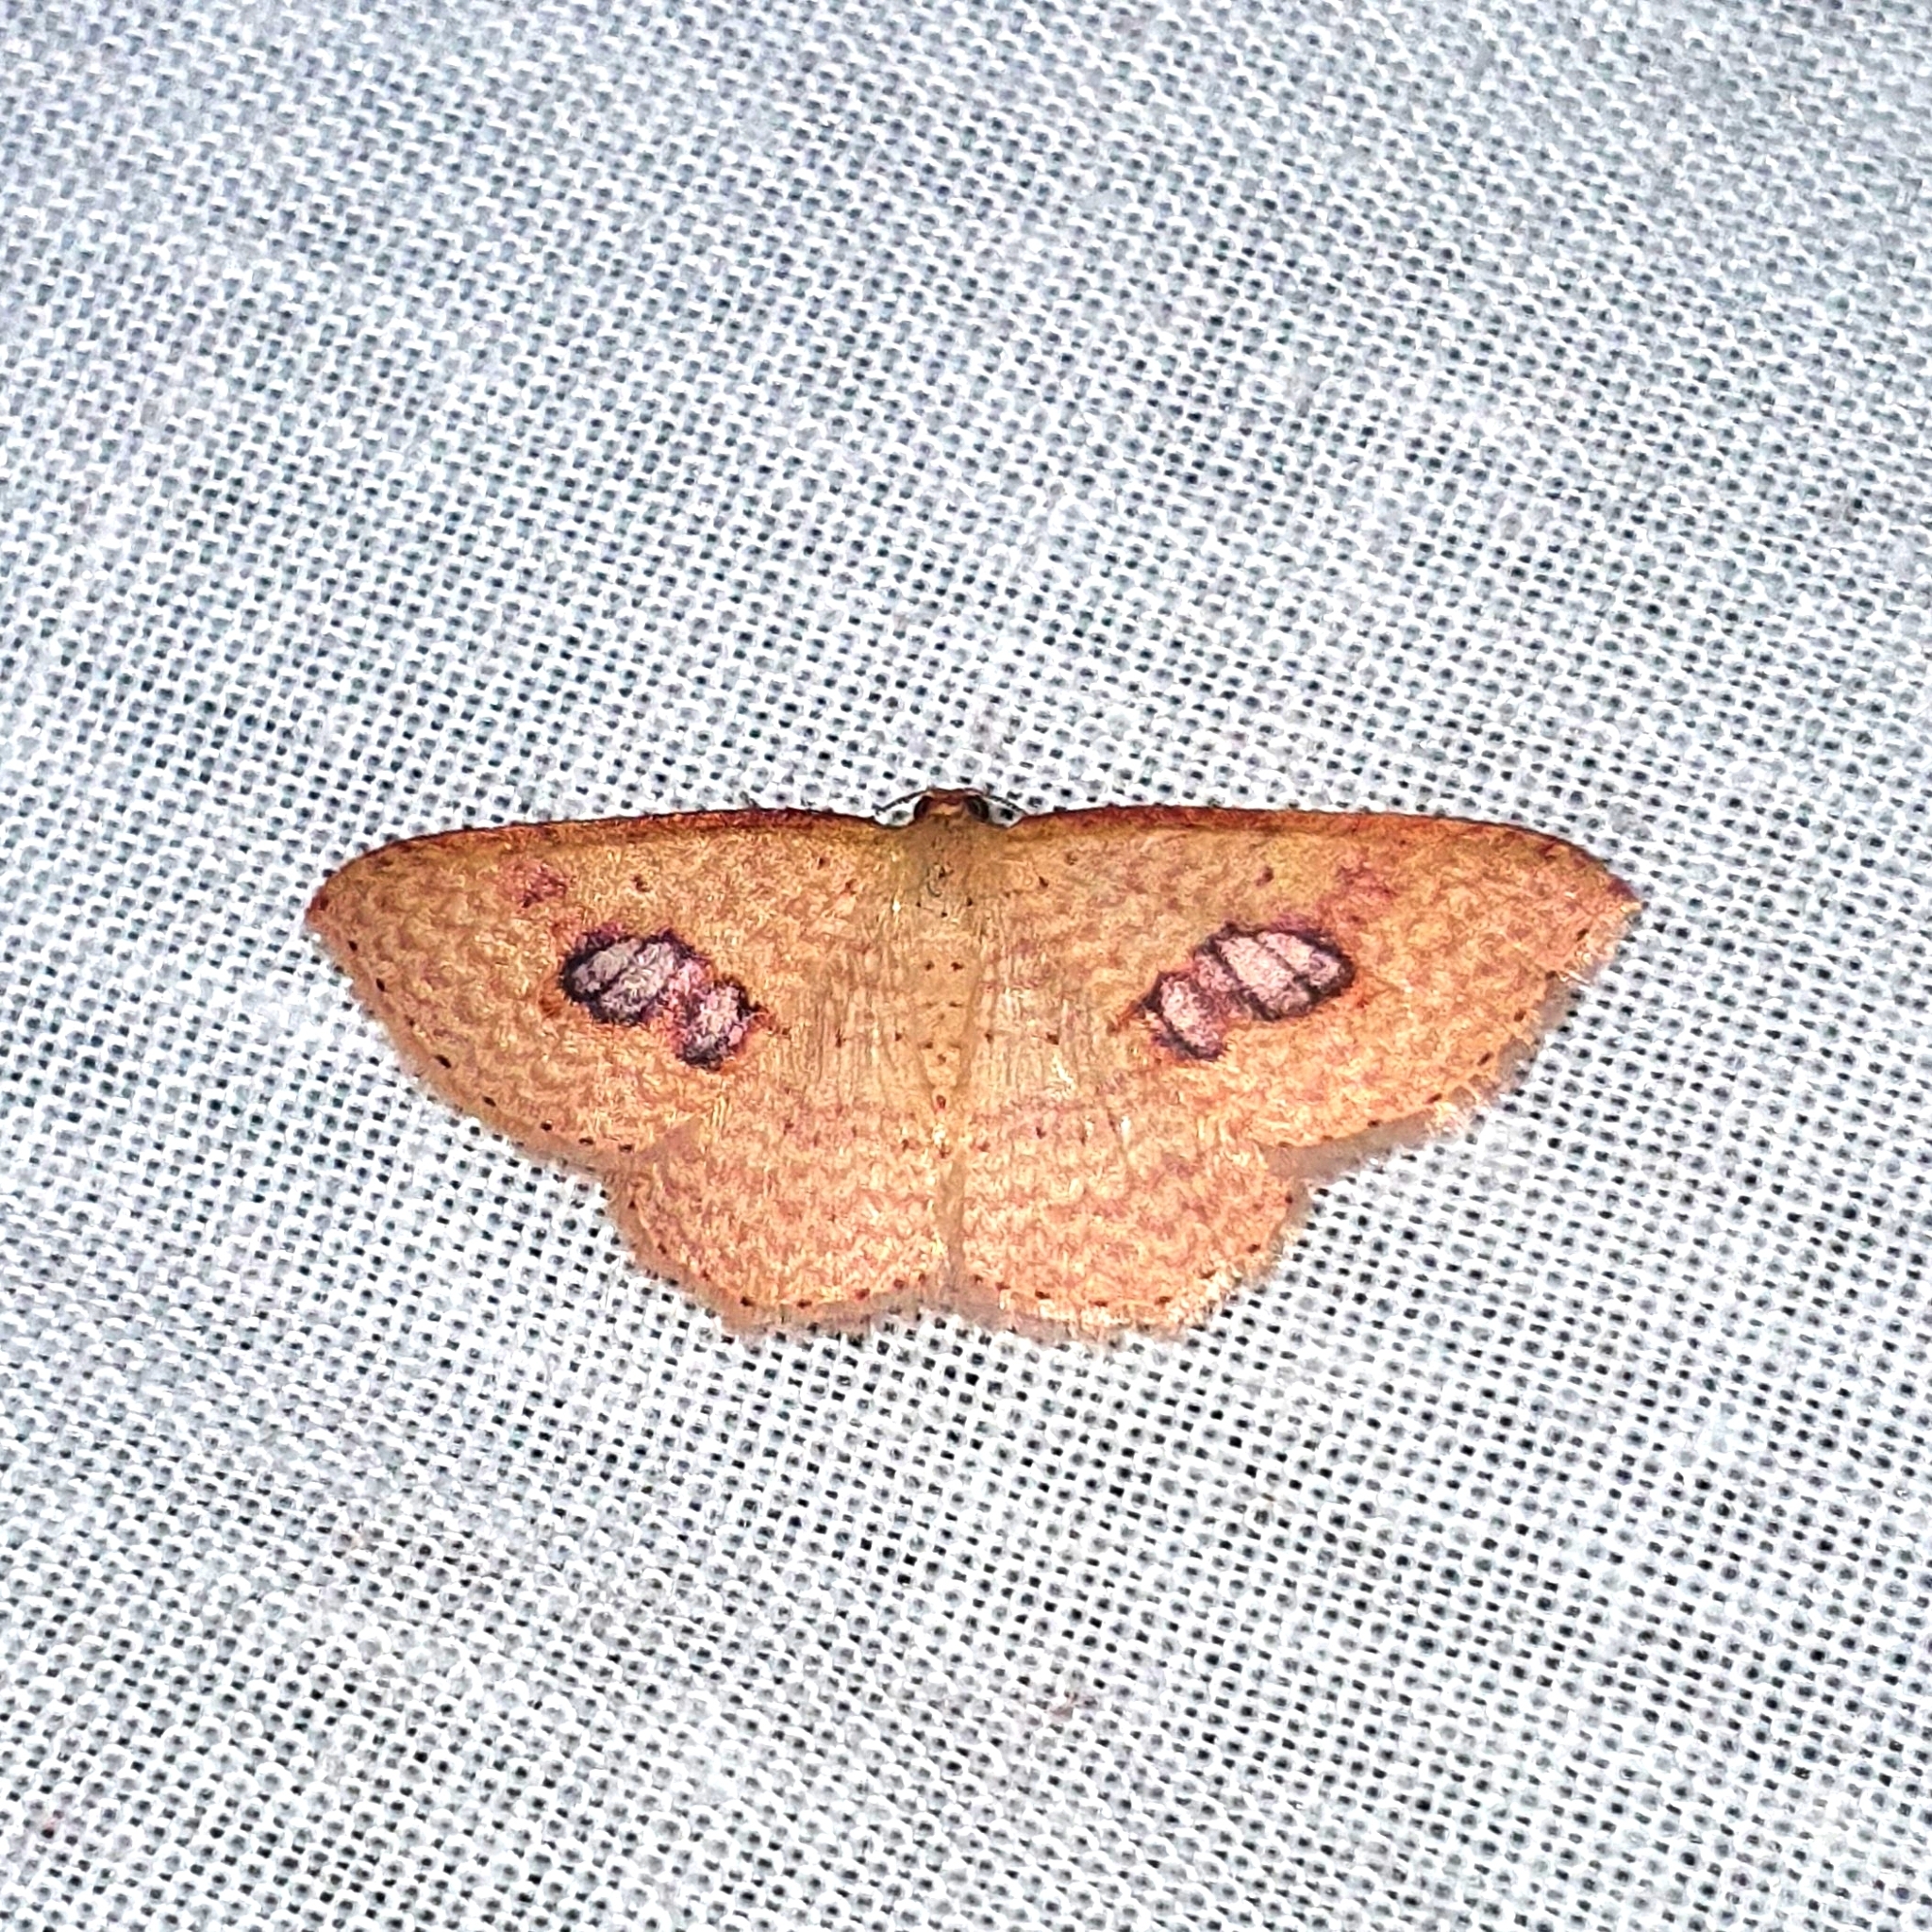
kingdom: Animalia
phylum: Arthropoda
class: Insecta
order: Lepidoptera
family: Geometridae
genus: Epicyme
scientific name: Epicyme rubropunctaria
